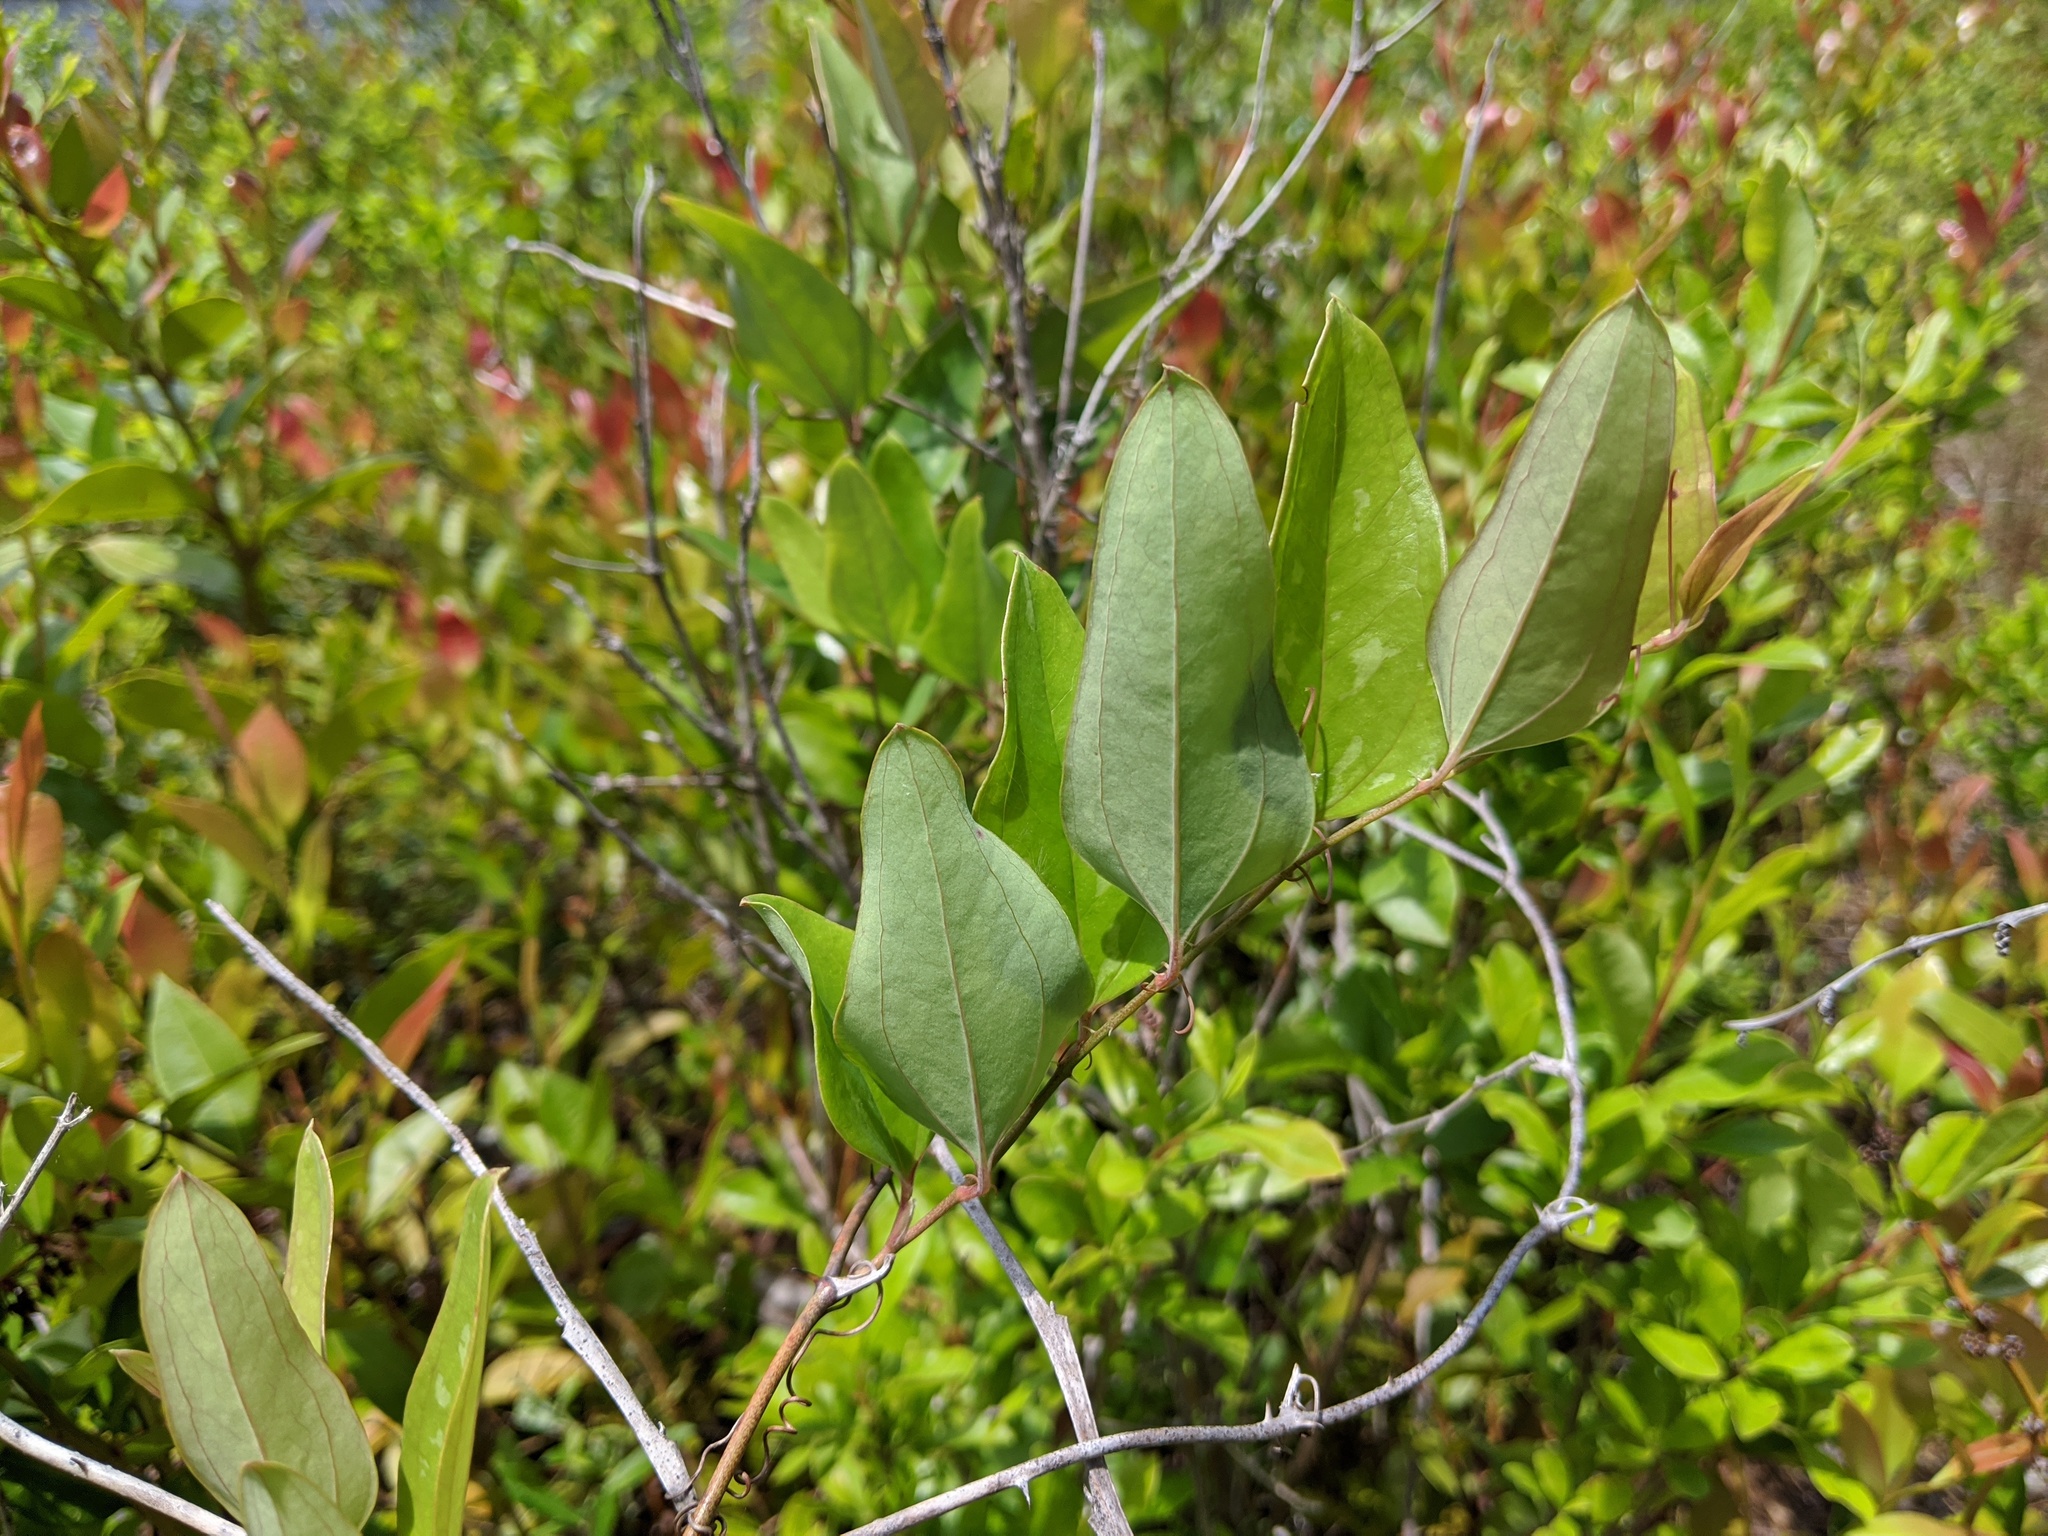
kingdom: Plantae
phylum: Tracheophyta
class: Liliopsida
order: Liliales
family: Smilacaceae
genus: Smilax
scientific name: Smilax glauca
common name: Cat greenbrier
